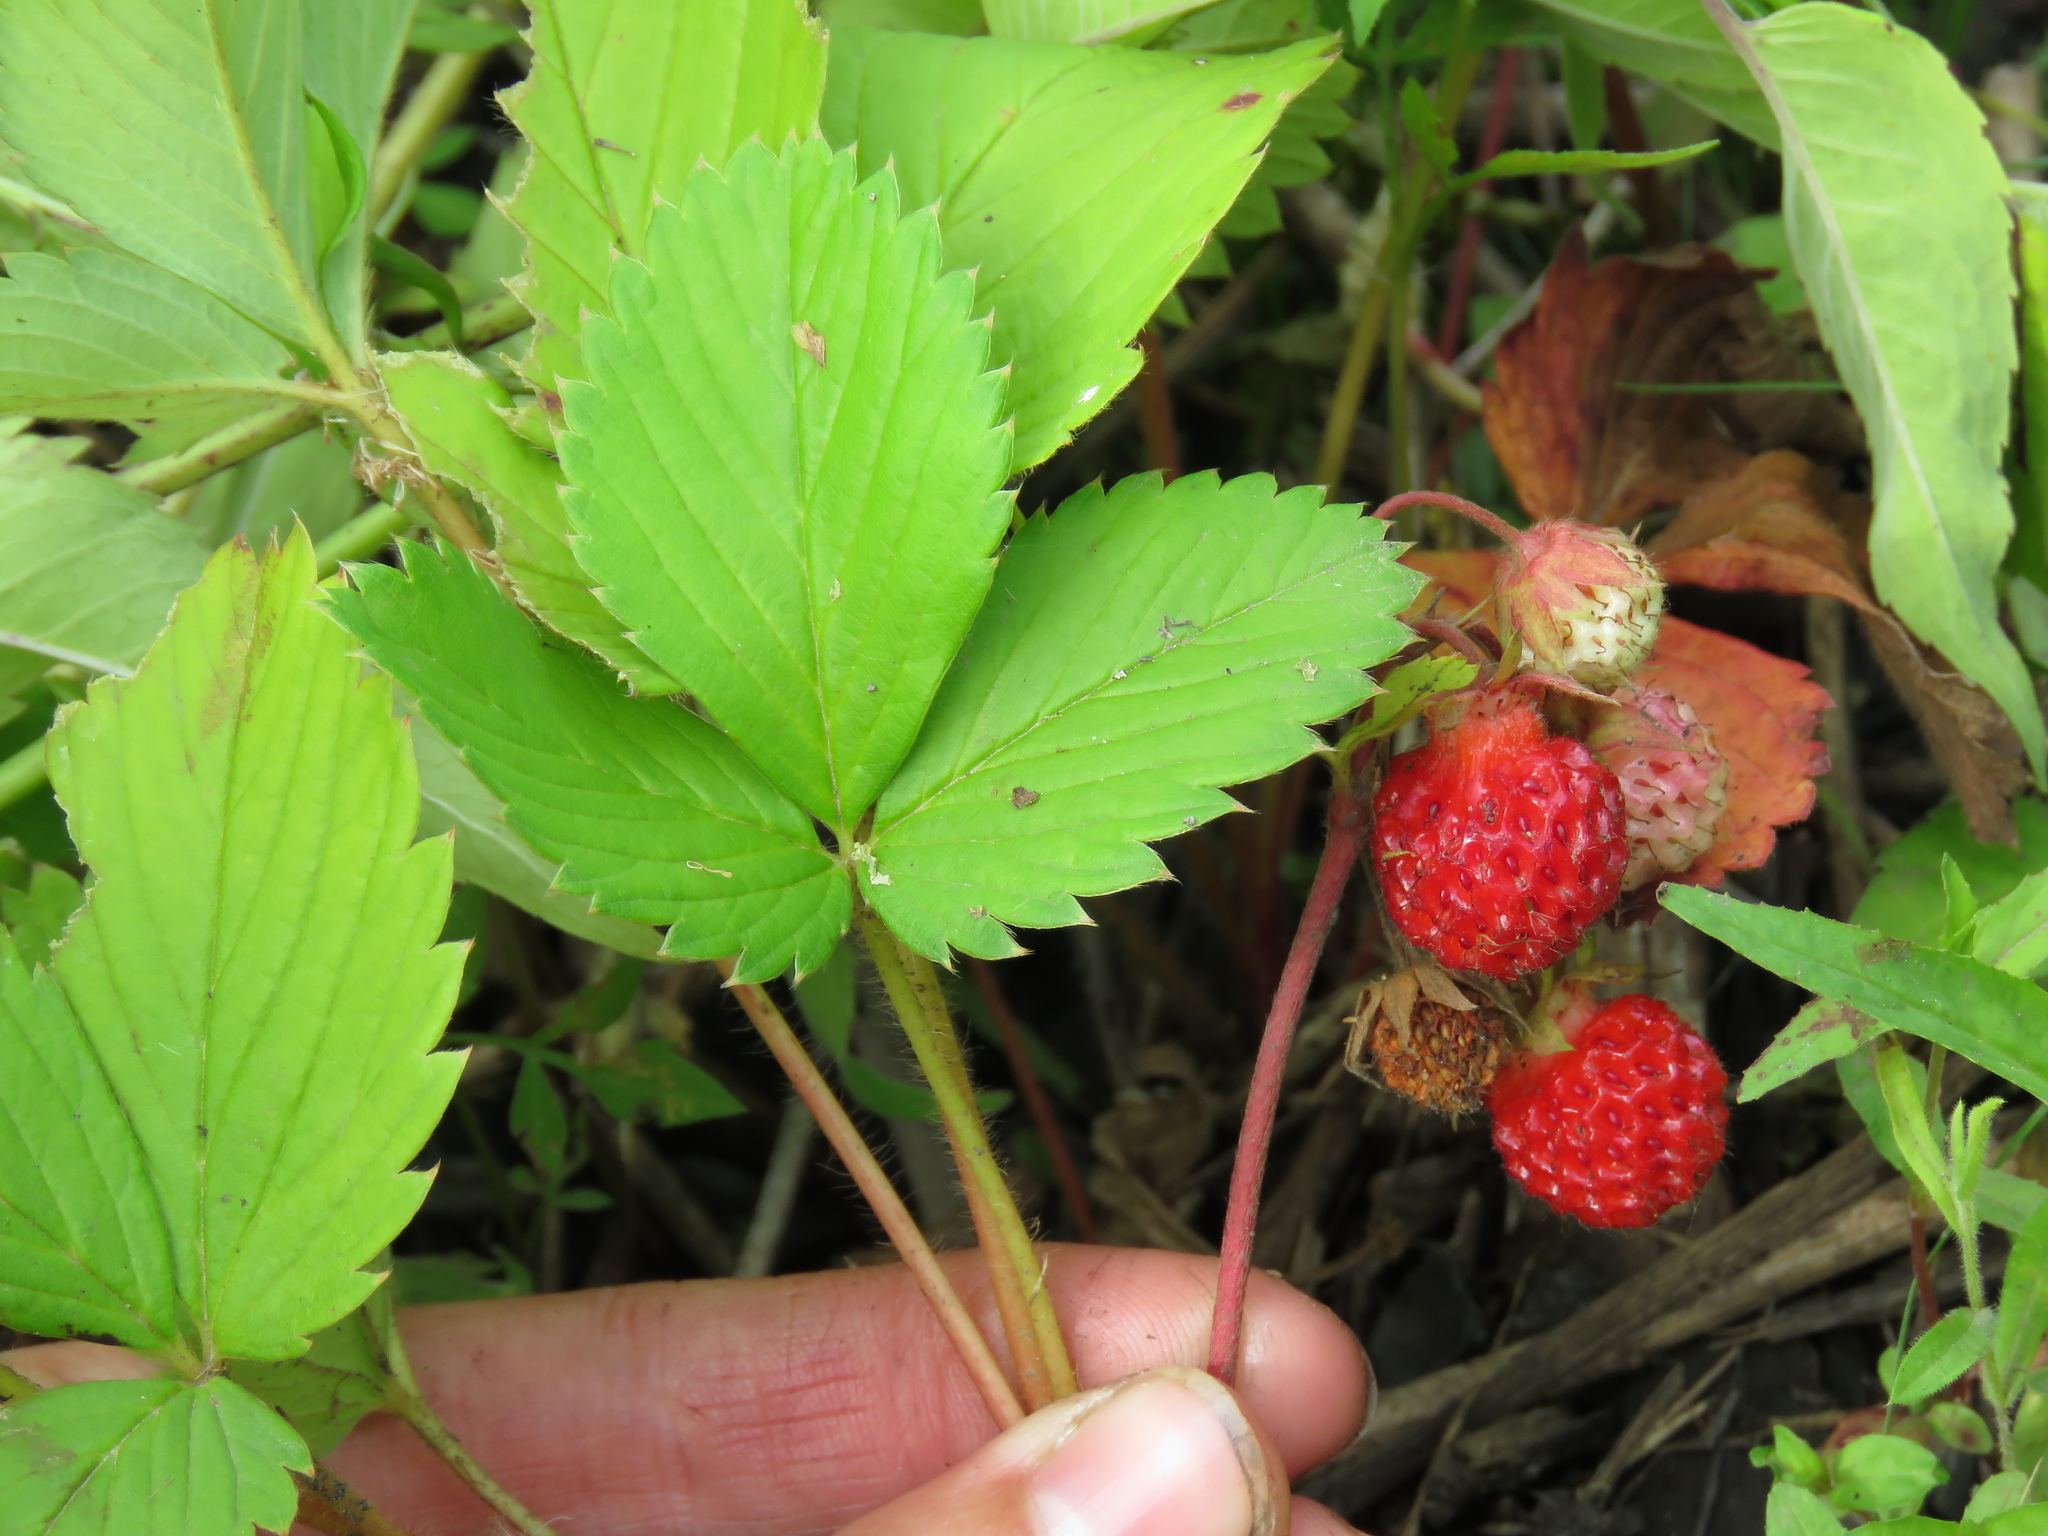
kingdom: Plantae
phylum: Tracheophyta
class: Magnoliopsida
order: Rosales
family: Rosaceae
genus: Fragaria
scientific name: Fragaria virginiana
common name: Thickleaved wild strawberry
